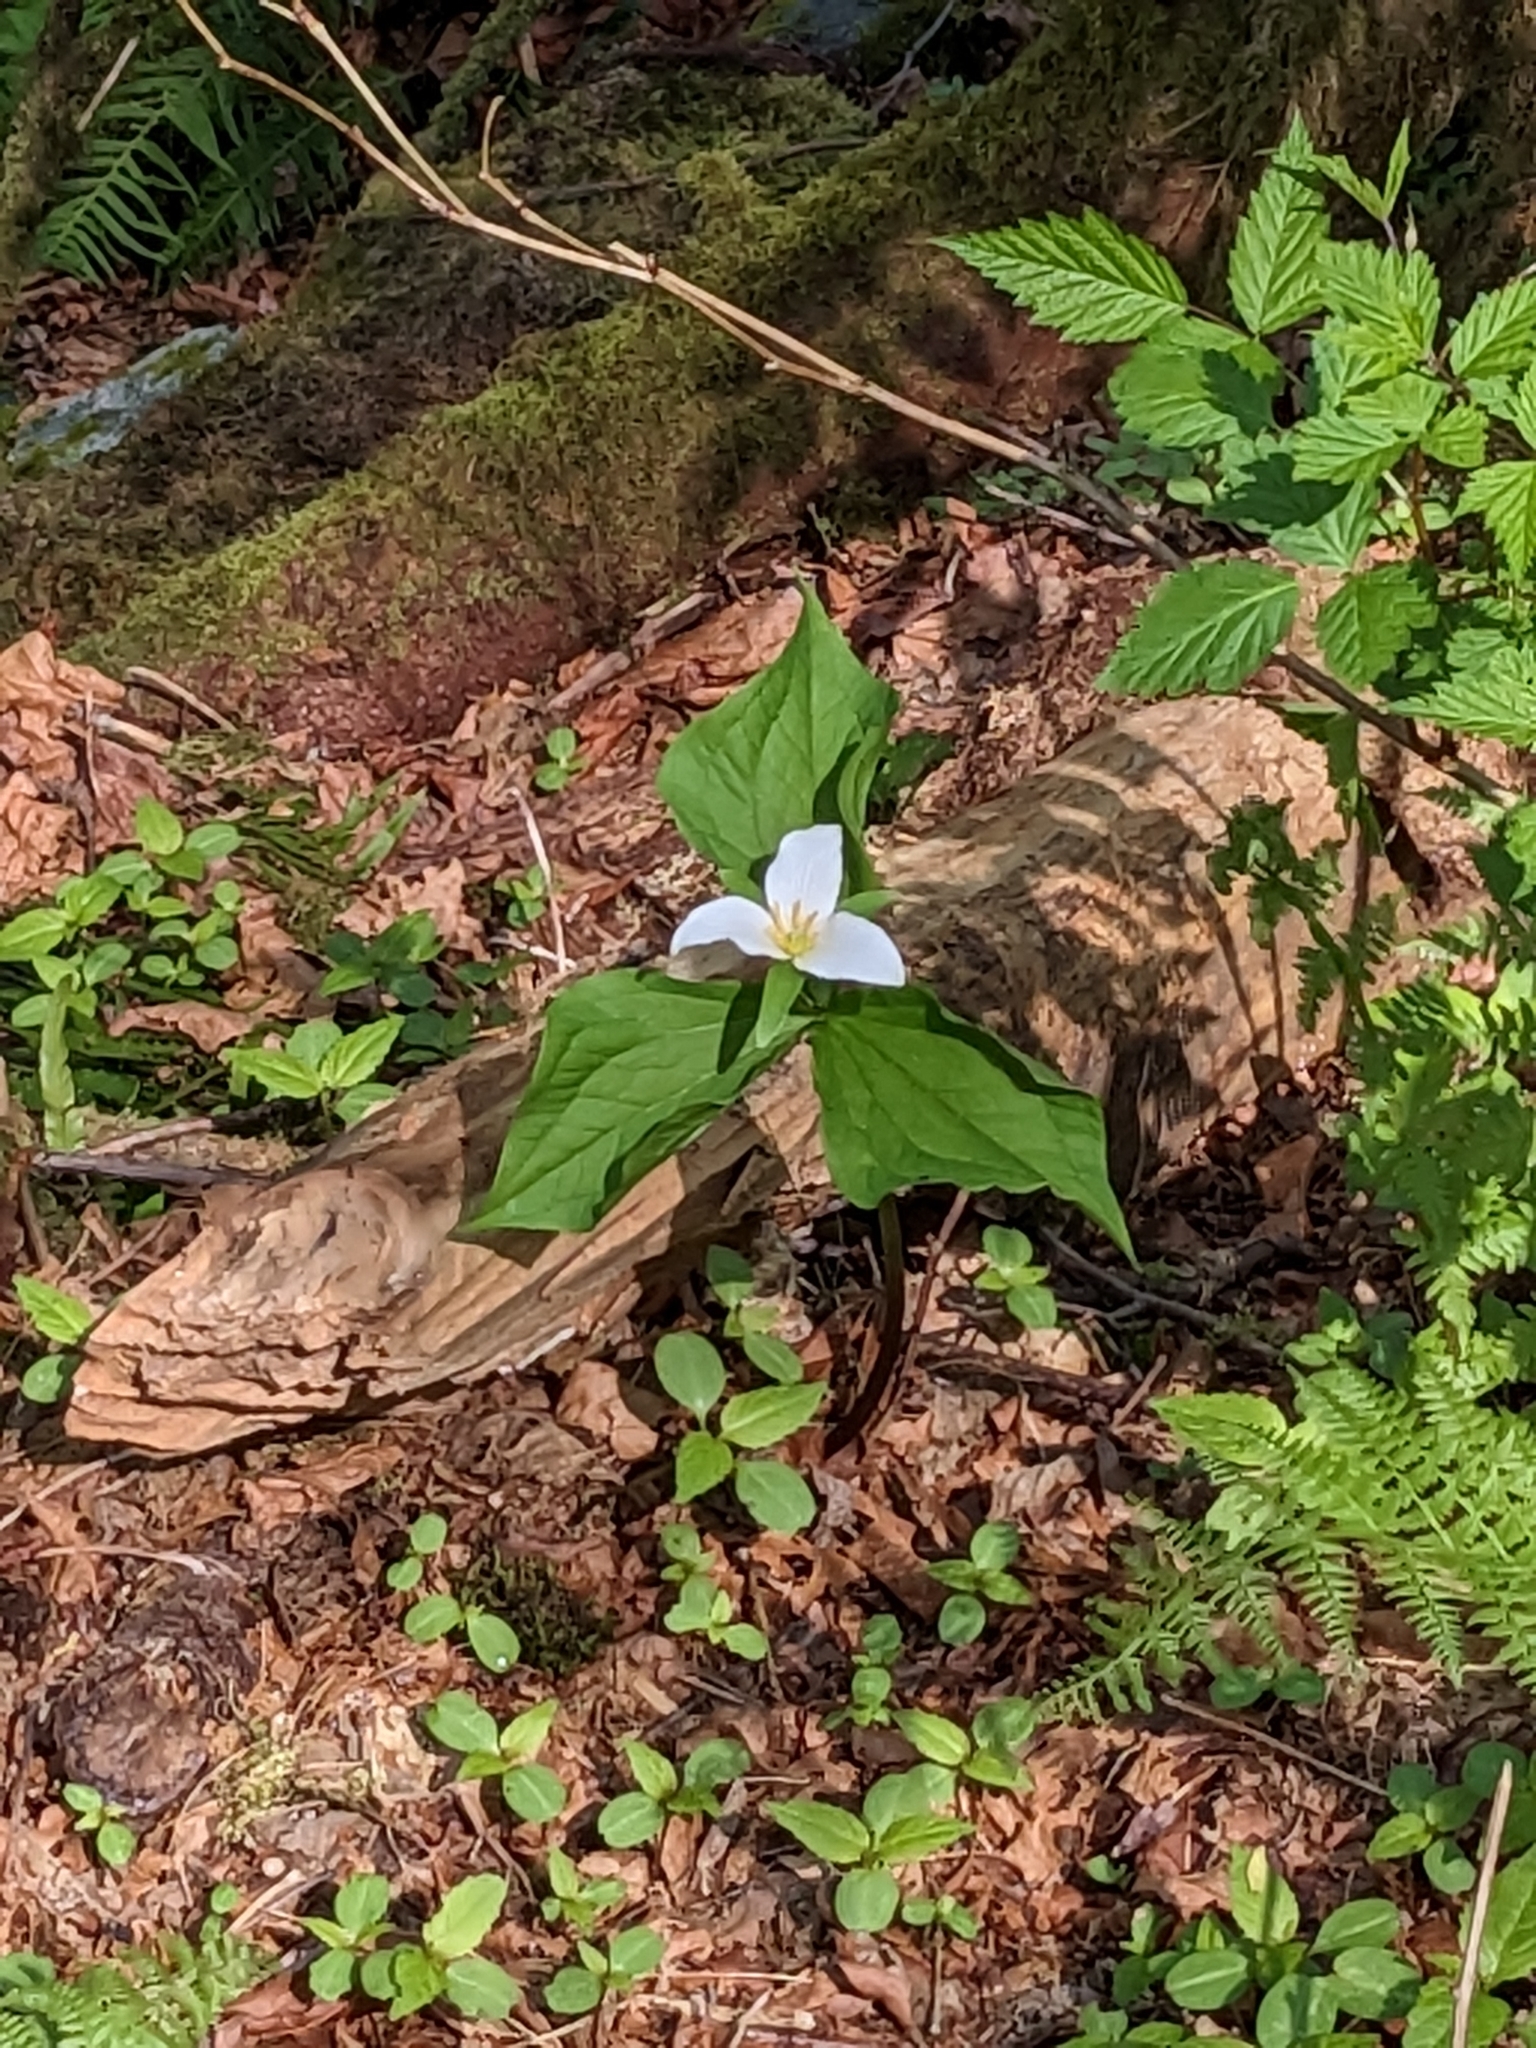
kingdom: Plantae
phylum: Tracheophyta
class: Liliopsida
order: Liliales
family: Melanthiaceae
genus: Trillium
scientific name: Trillium ovatum
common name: Pacific trillium
